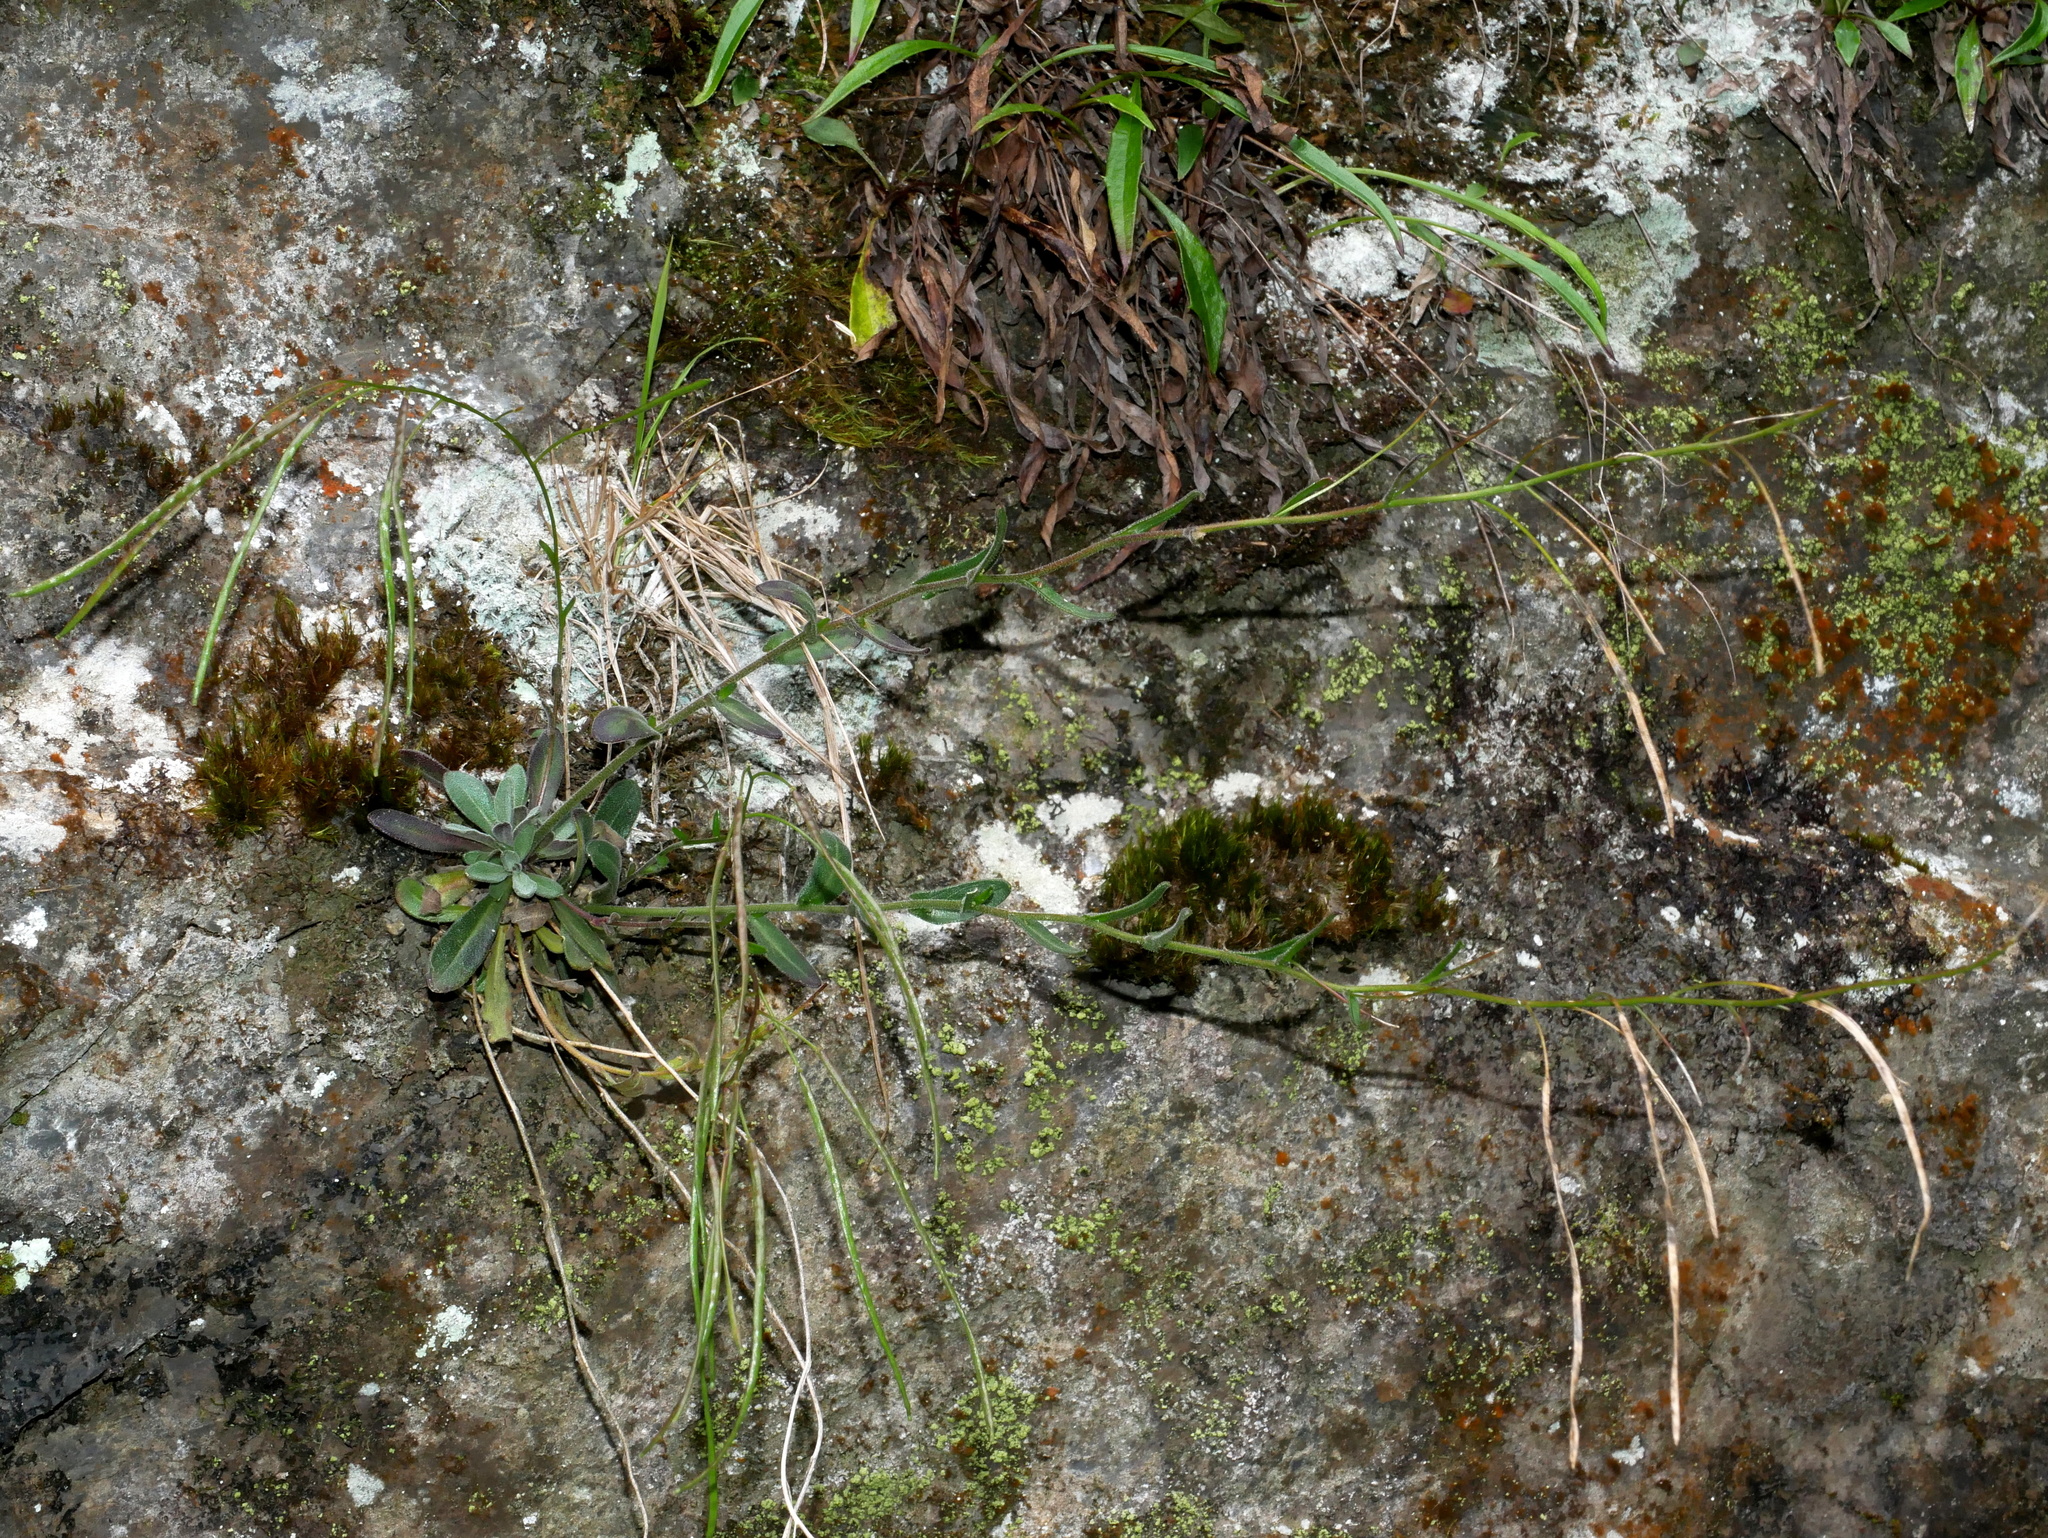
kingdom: Plantae
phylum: Tracheophyta
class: Magnoliopsida
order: Brassicales
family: Brassicaceae
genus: Arabis
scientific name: Arabis serrata
